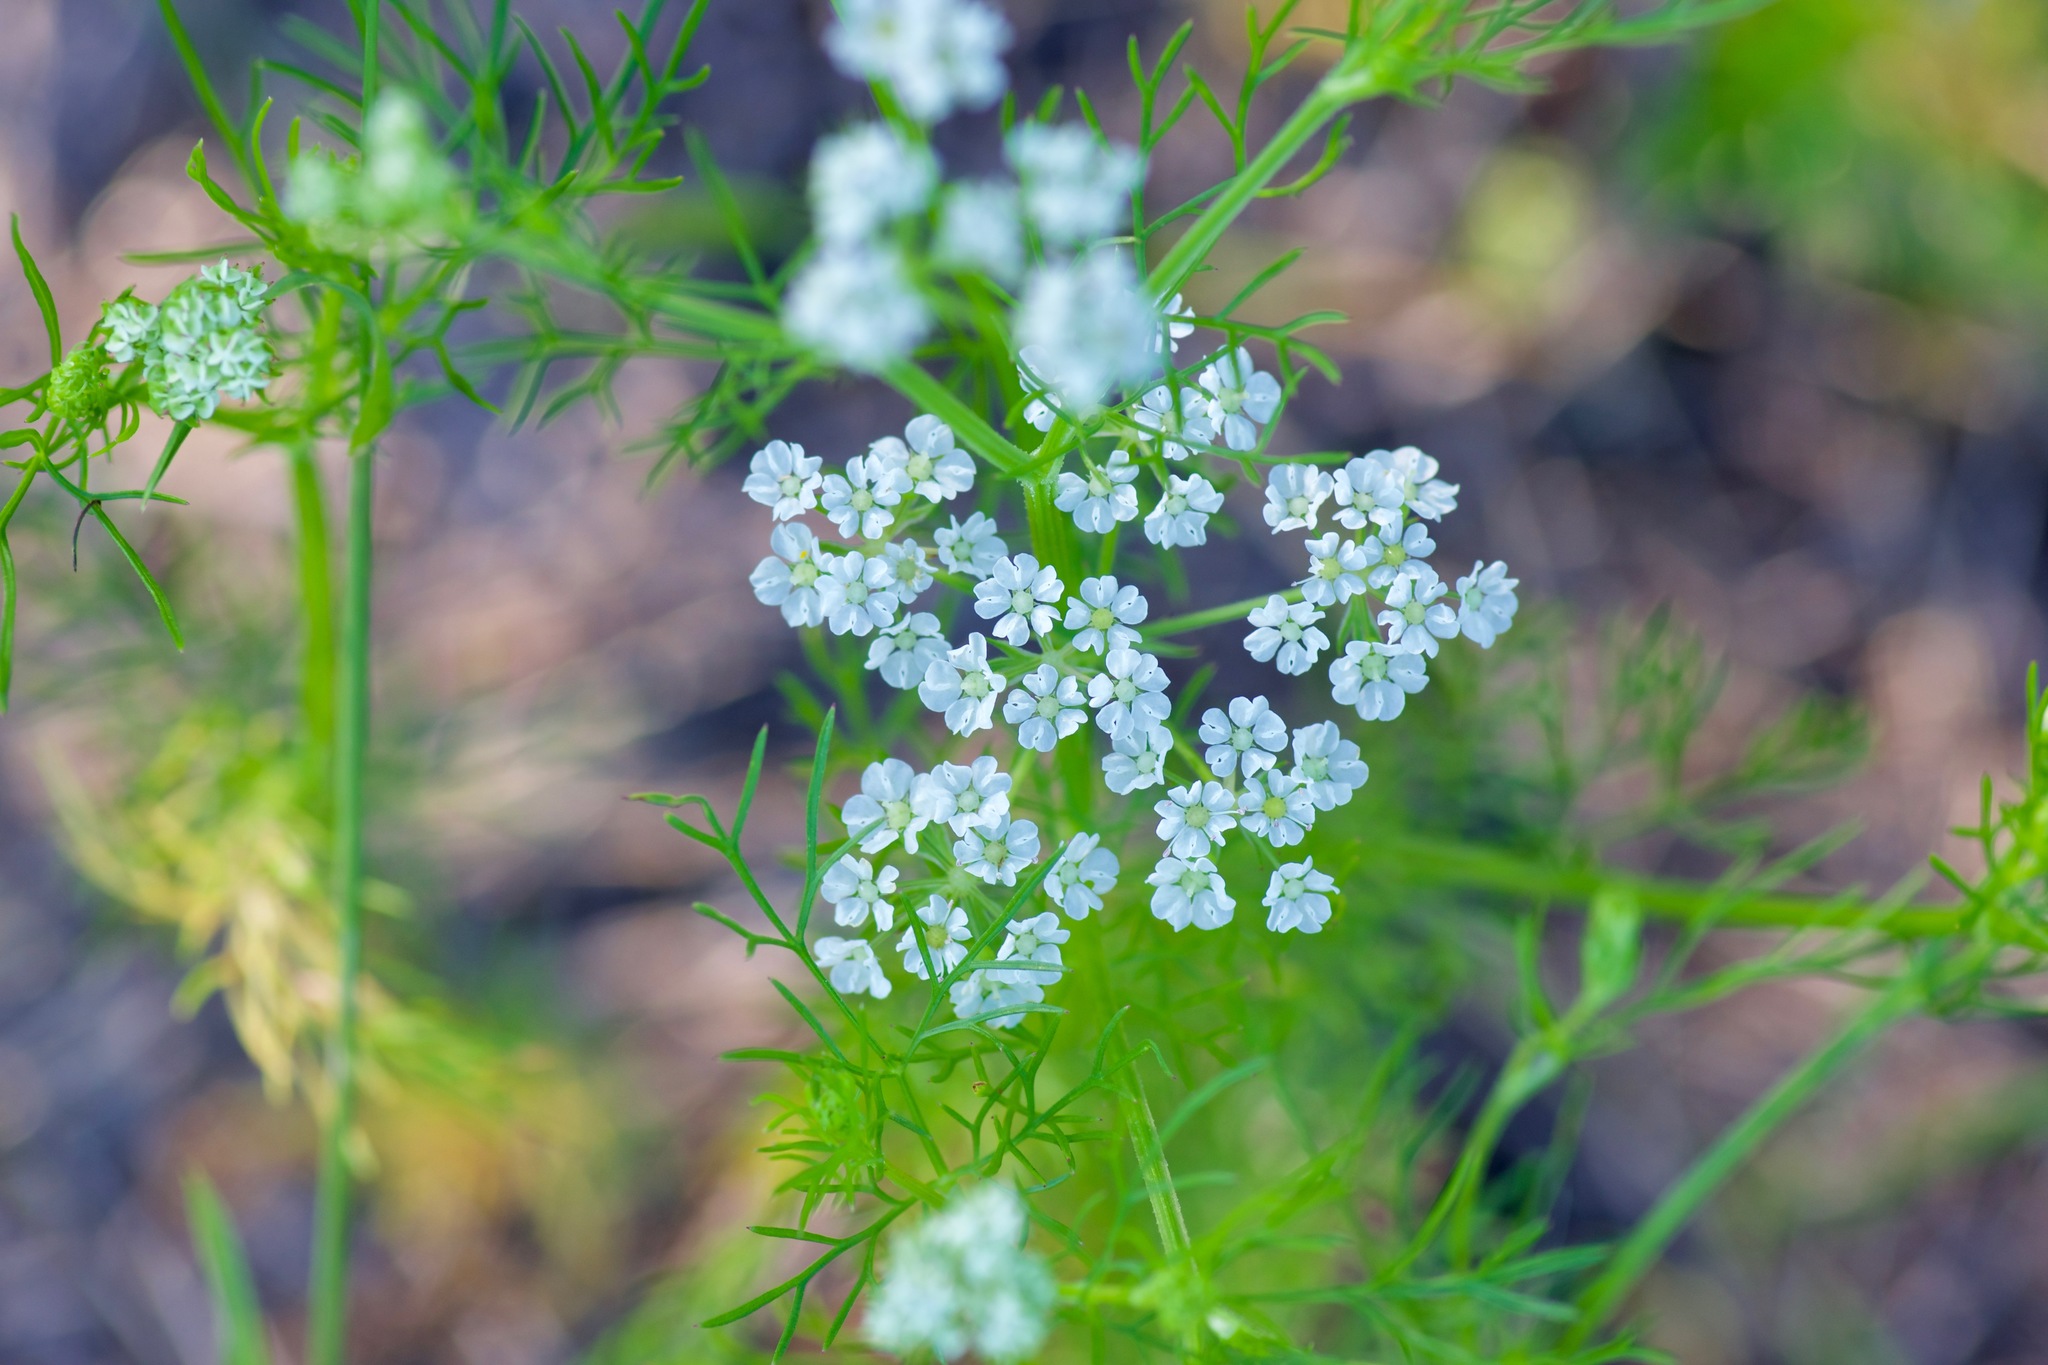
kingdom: Plantae
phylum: Tracheophyta
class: Magnoliopsida
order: Apiales
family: Apiaceae
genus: Atrema
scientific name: Atrema americanum
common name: Prairie-bishop
